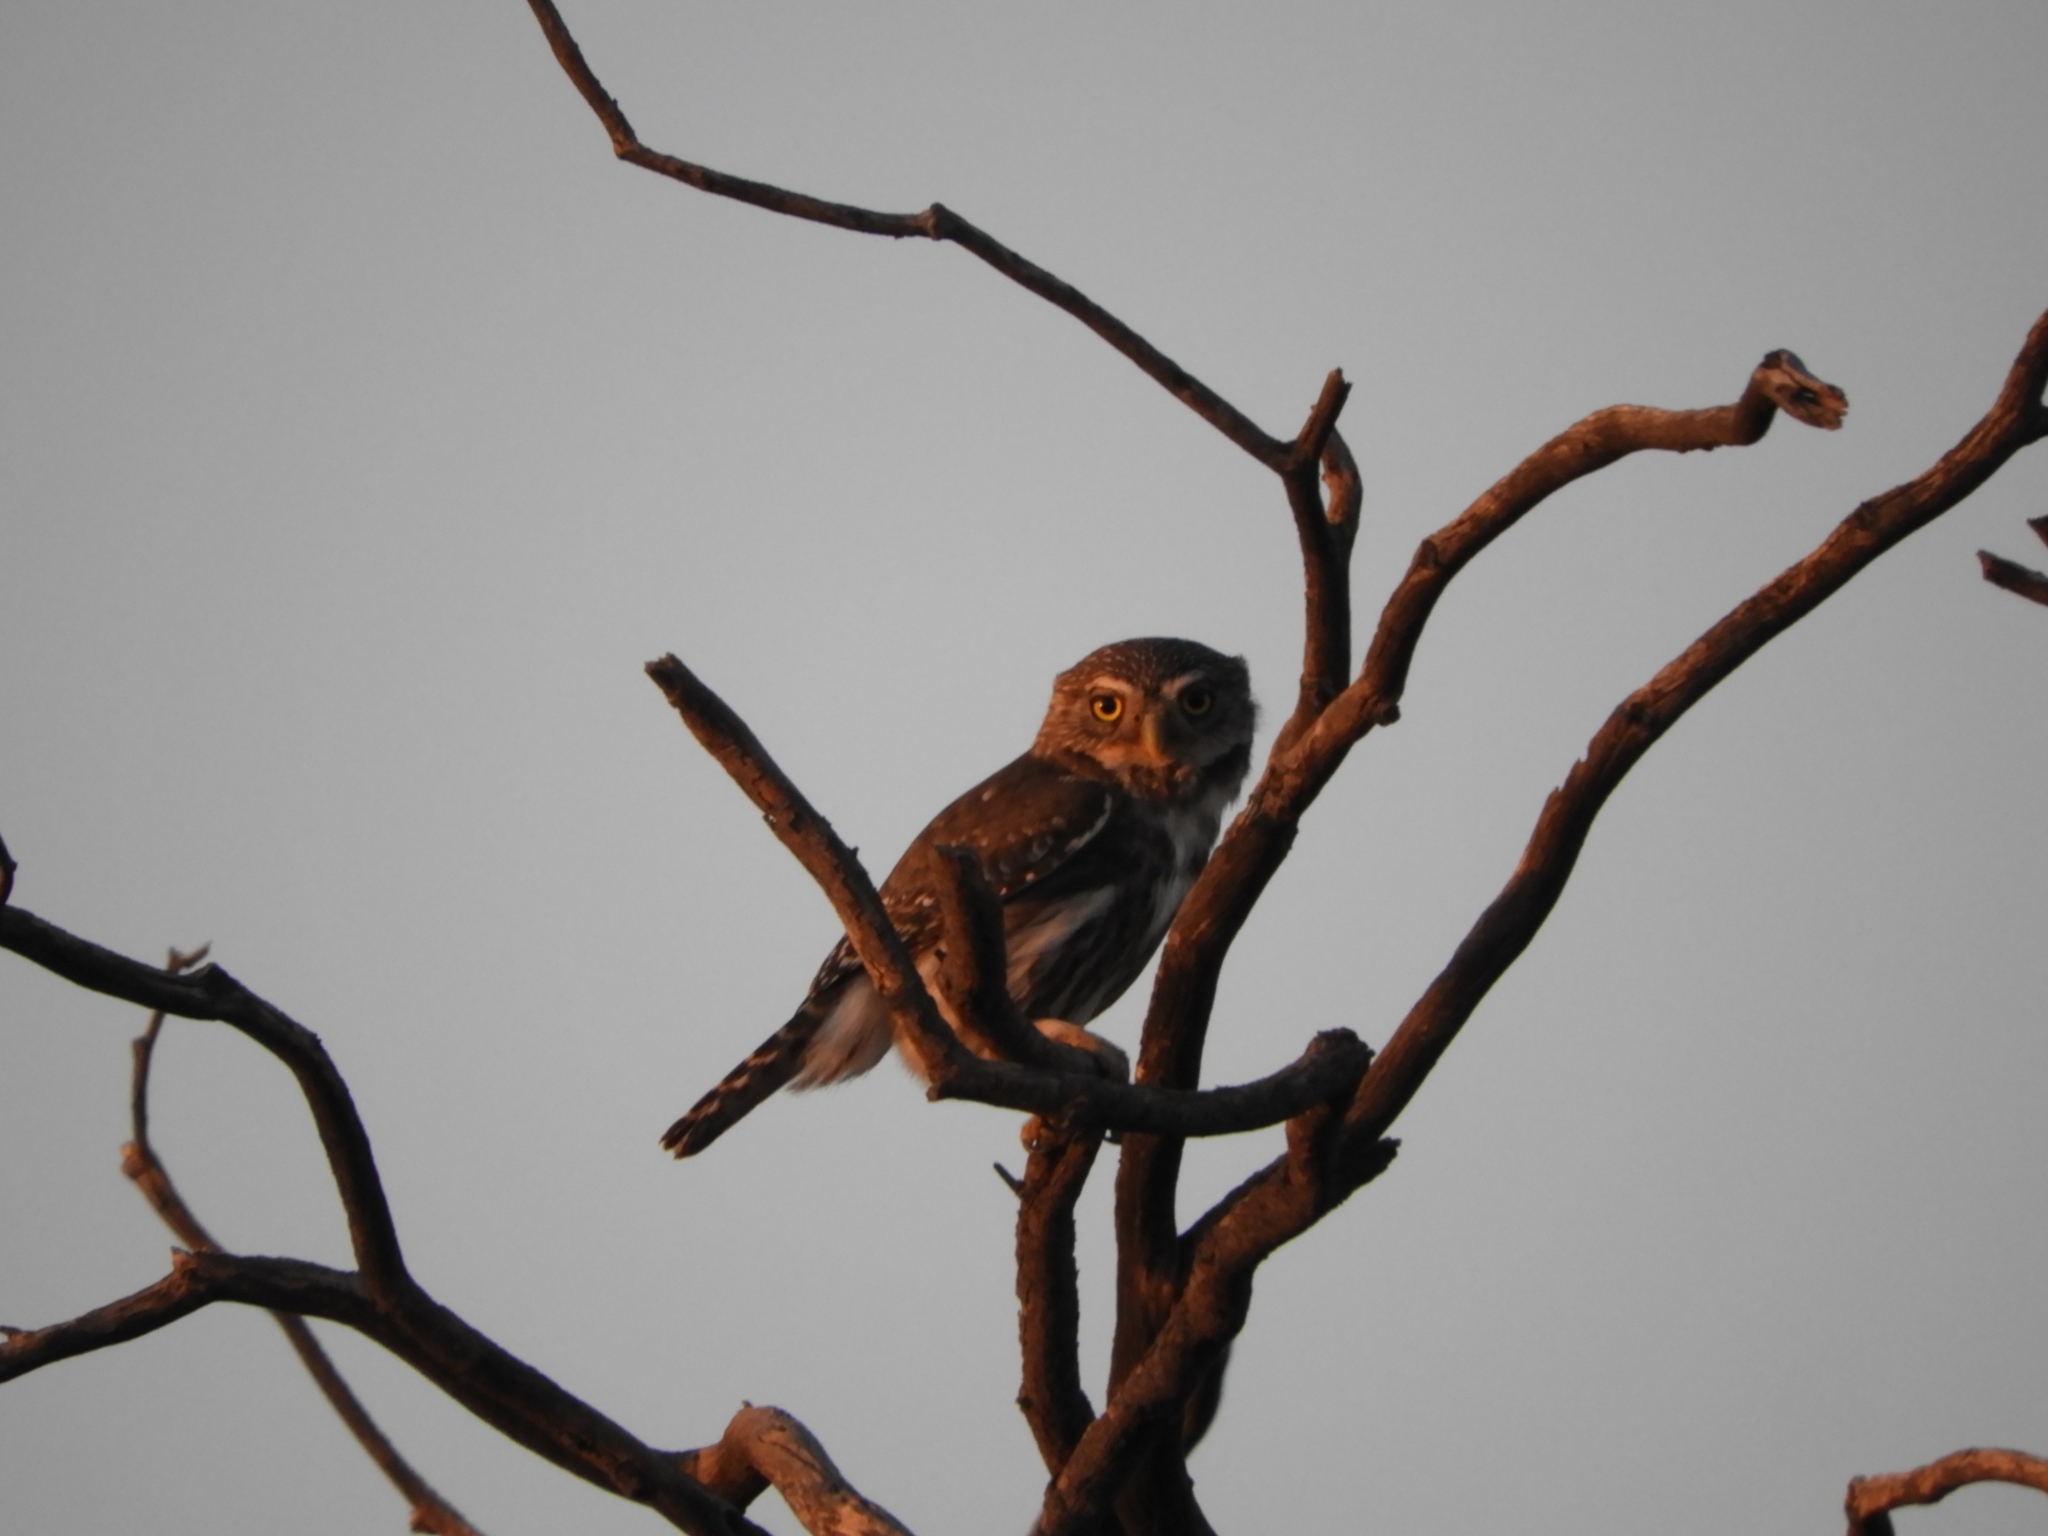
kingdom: Animalia
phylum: Chordata
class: Aves
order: Strigiformes
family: Strigidae
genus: Glaucidium
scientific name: Glaucidium brasilianum
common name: Ferruginous pygmy-owl
